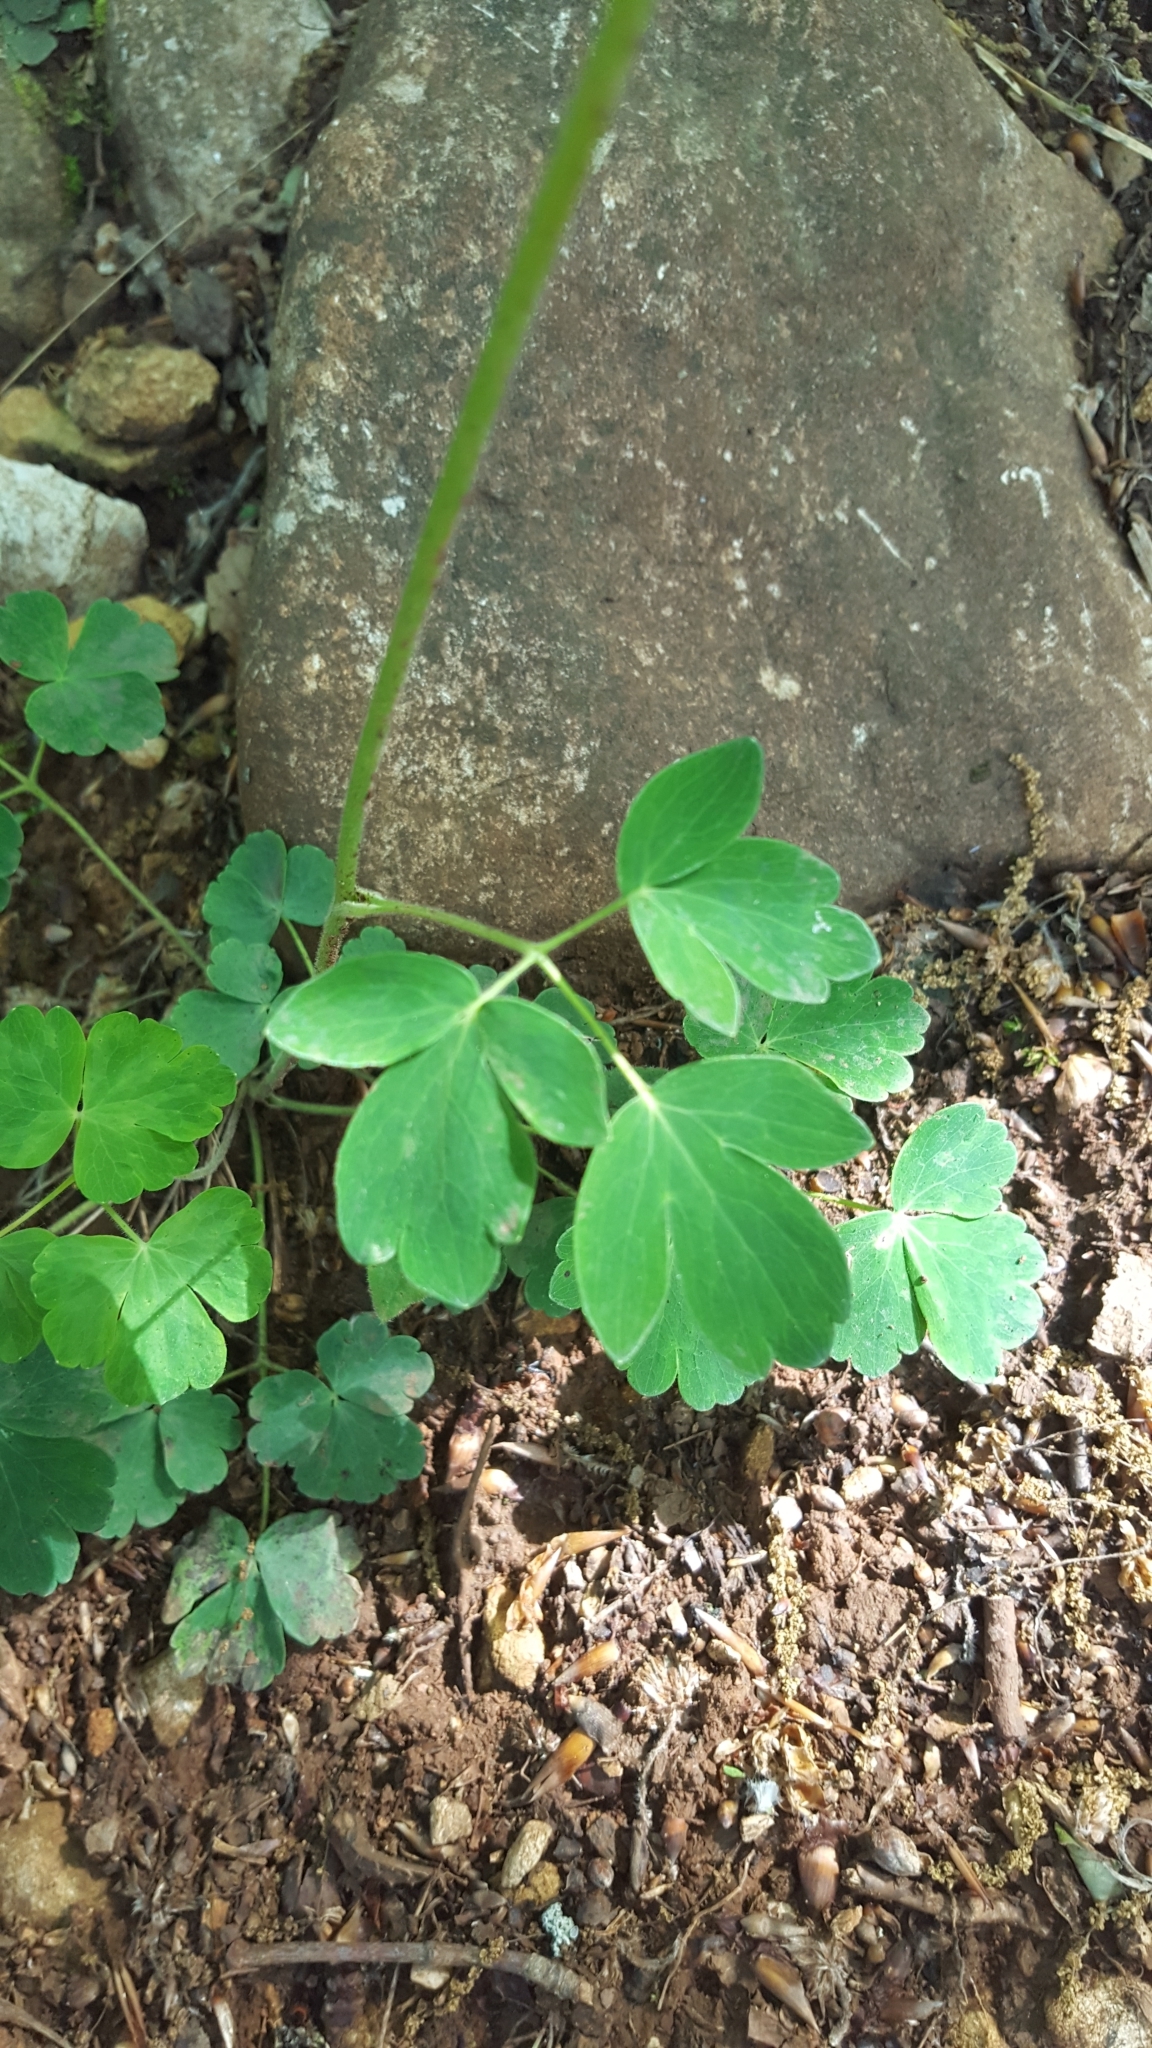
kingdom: Plantae
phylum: Tracheophyta
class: Magnoliopsida
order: Ranunculales
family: Ranunculaceae
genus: Aquilegia
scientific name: Aquilegia vulgaris
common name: Columbine
